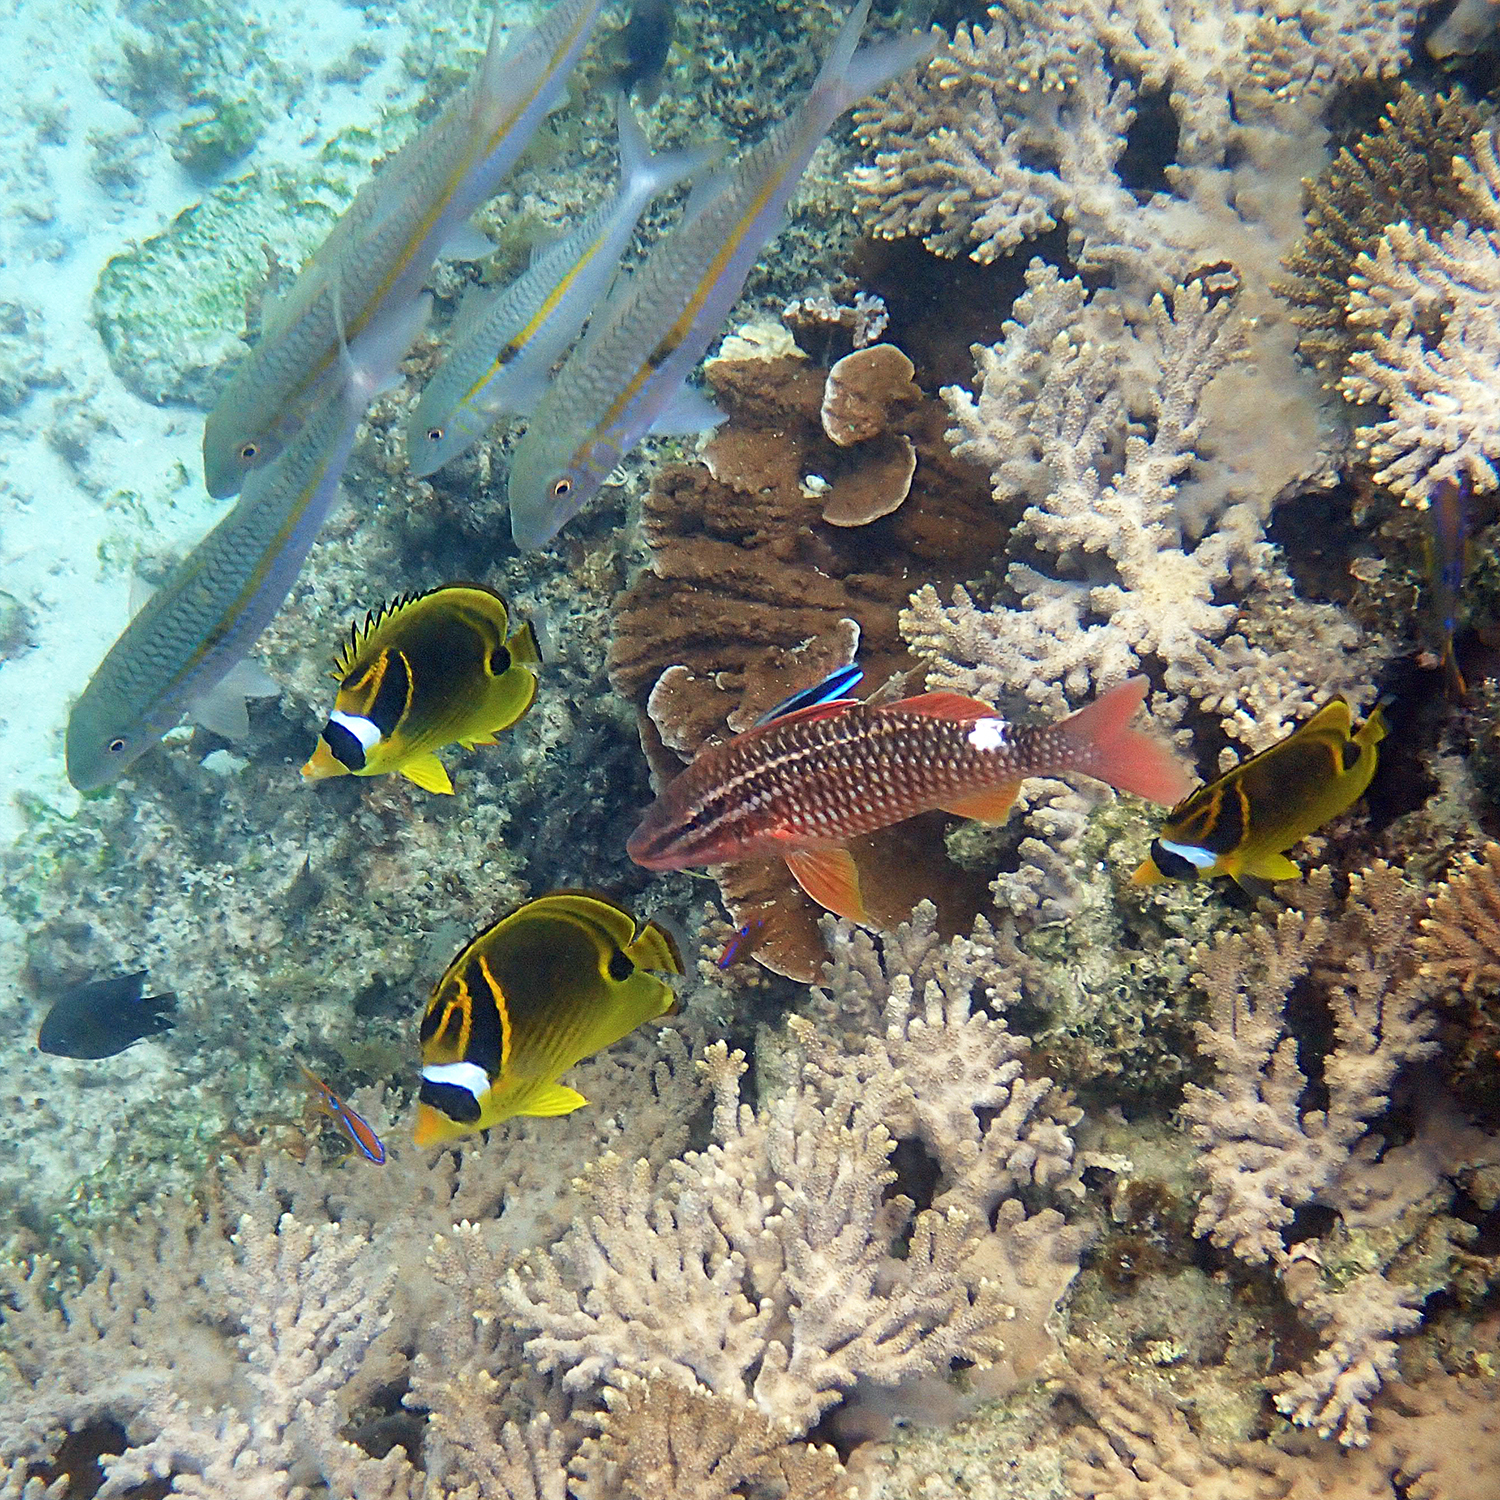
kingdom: Animalia
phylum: Chordata
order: Perciformes
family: Labridae
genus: Labroides
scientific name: Labroides dimidiatus
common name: Blue diesel wrasse
